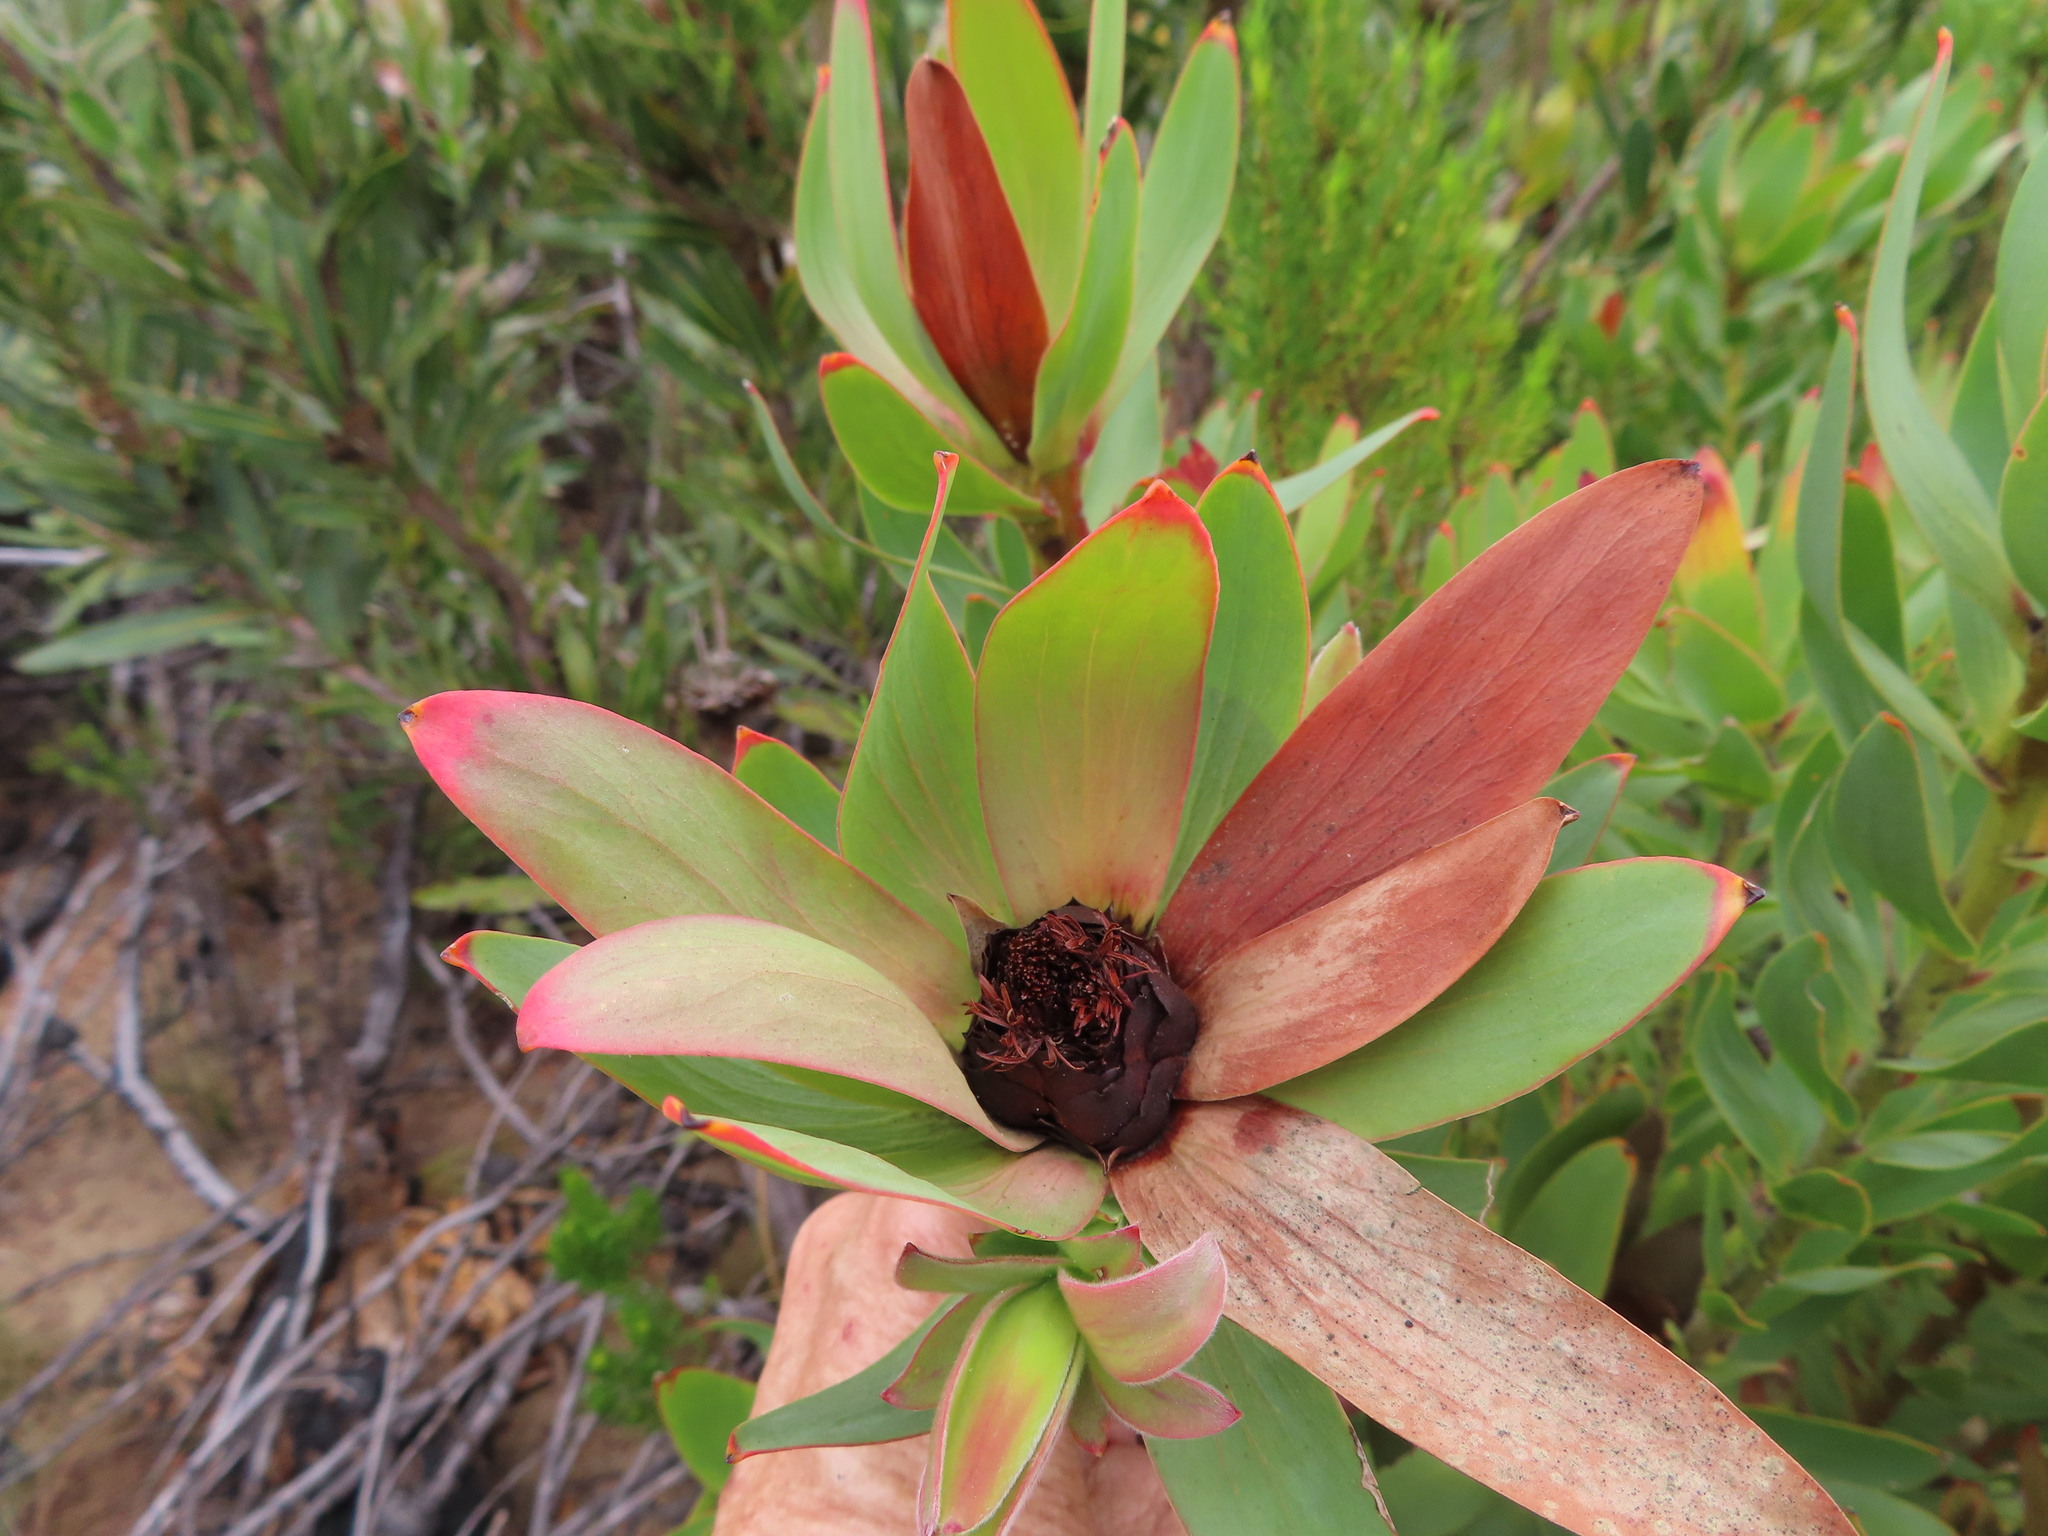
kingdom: Plantae
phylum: Tracheophyta
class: Magnoliopsida
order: Proteales
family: Proteaceae
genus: Leucadendron
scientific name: Leucadendron sessile
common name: Western sunbush
